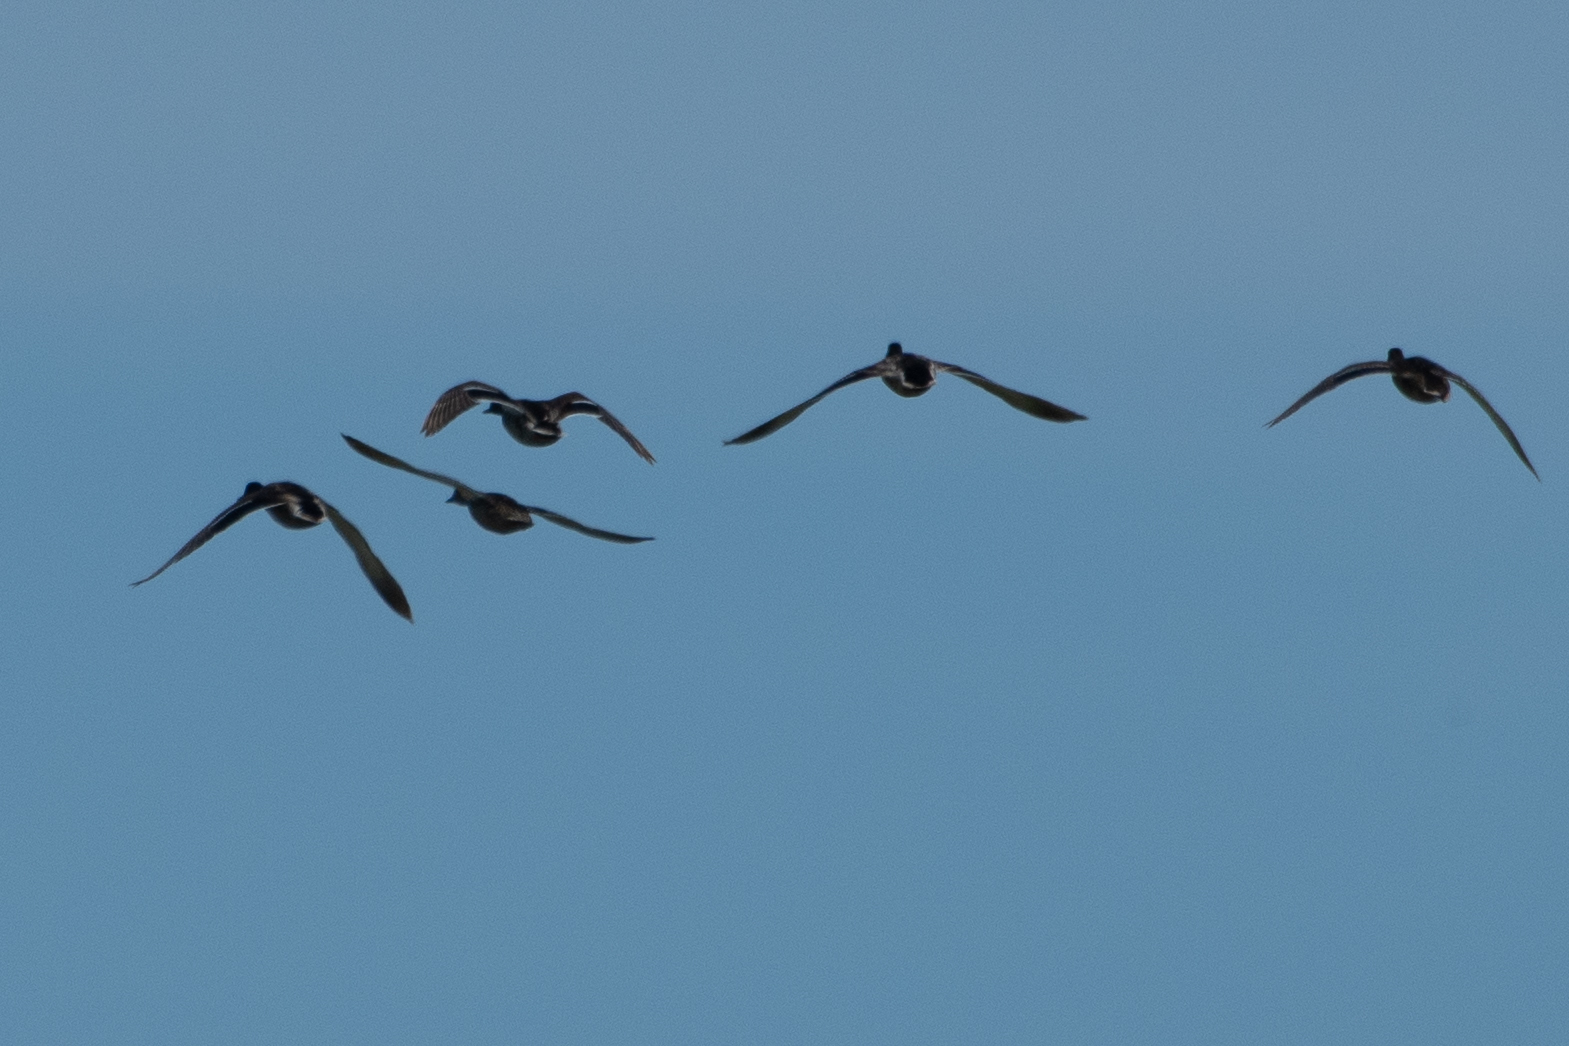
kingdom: Animalia
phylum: Chordata
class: Aves
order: Anseriformes
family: Anatidae
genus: Anas
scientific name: Anas platyrhynchos
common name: Mallard
